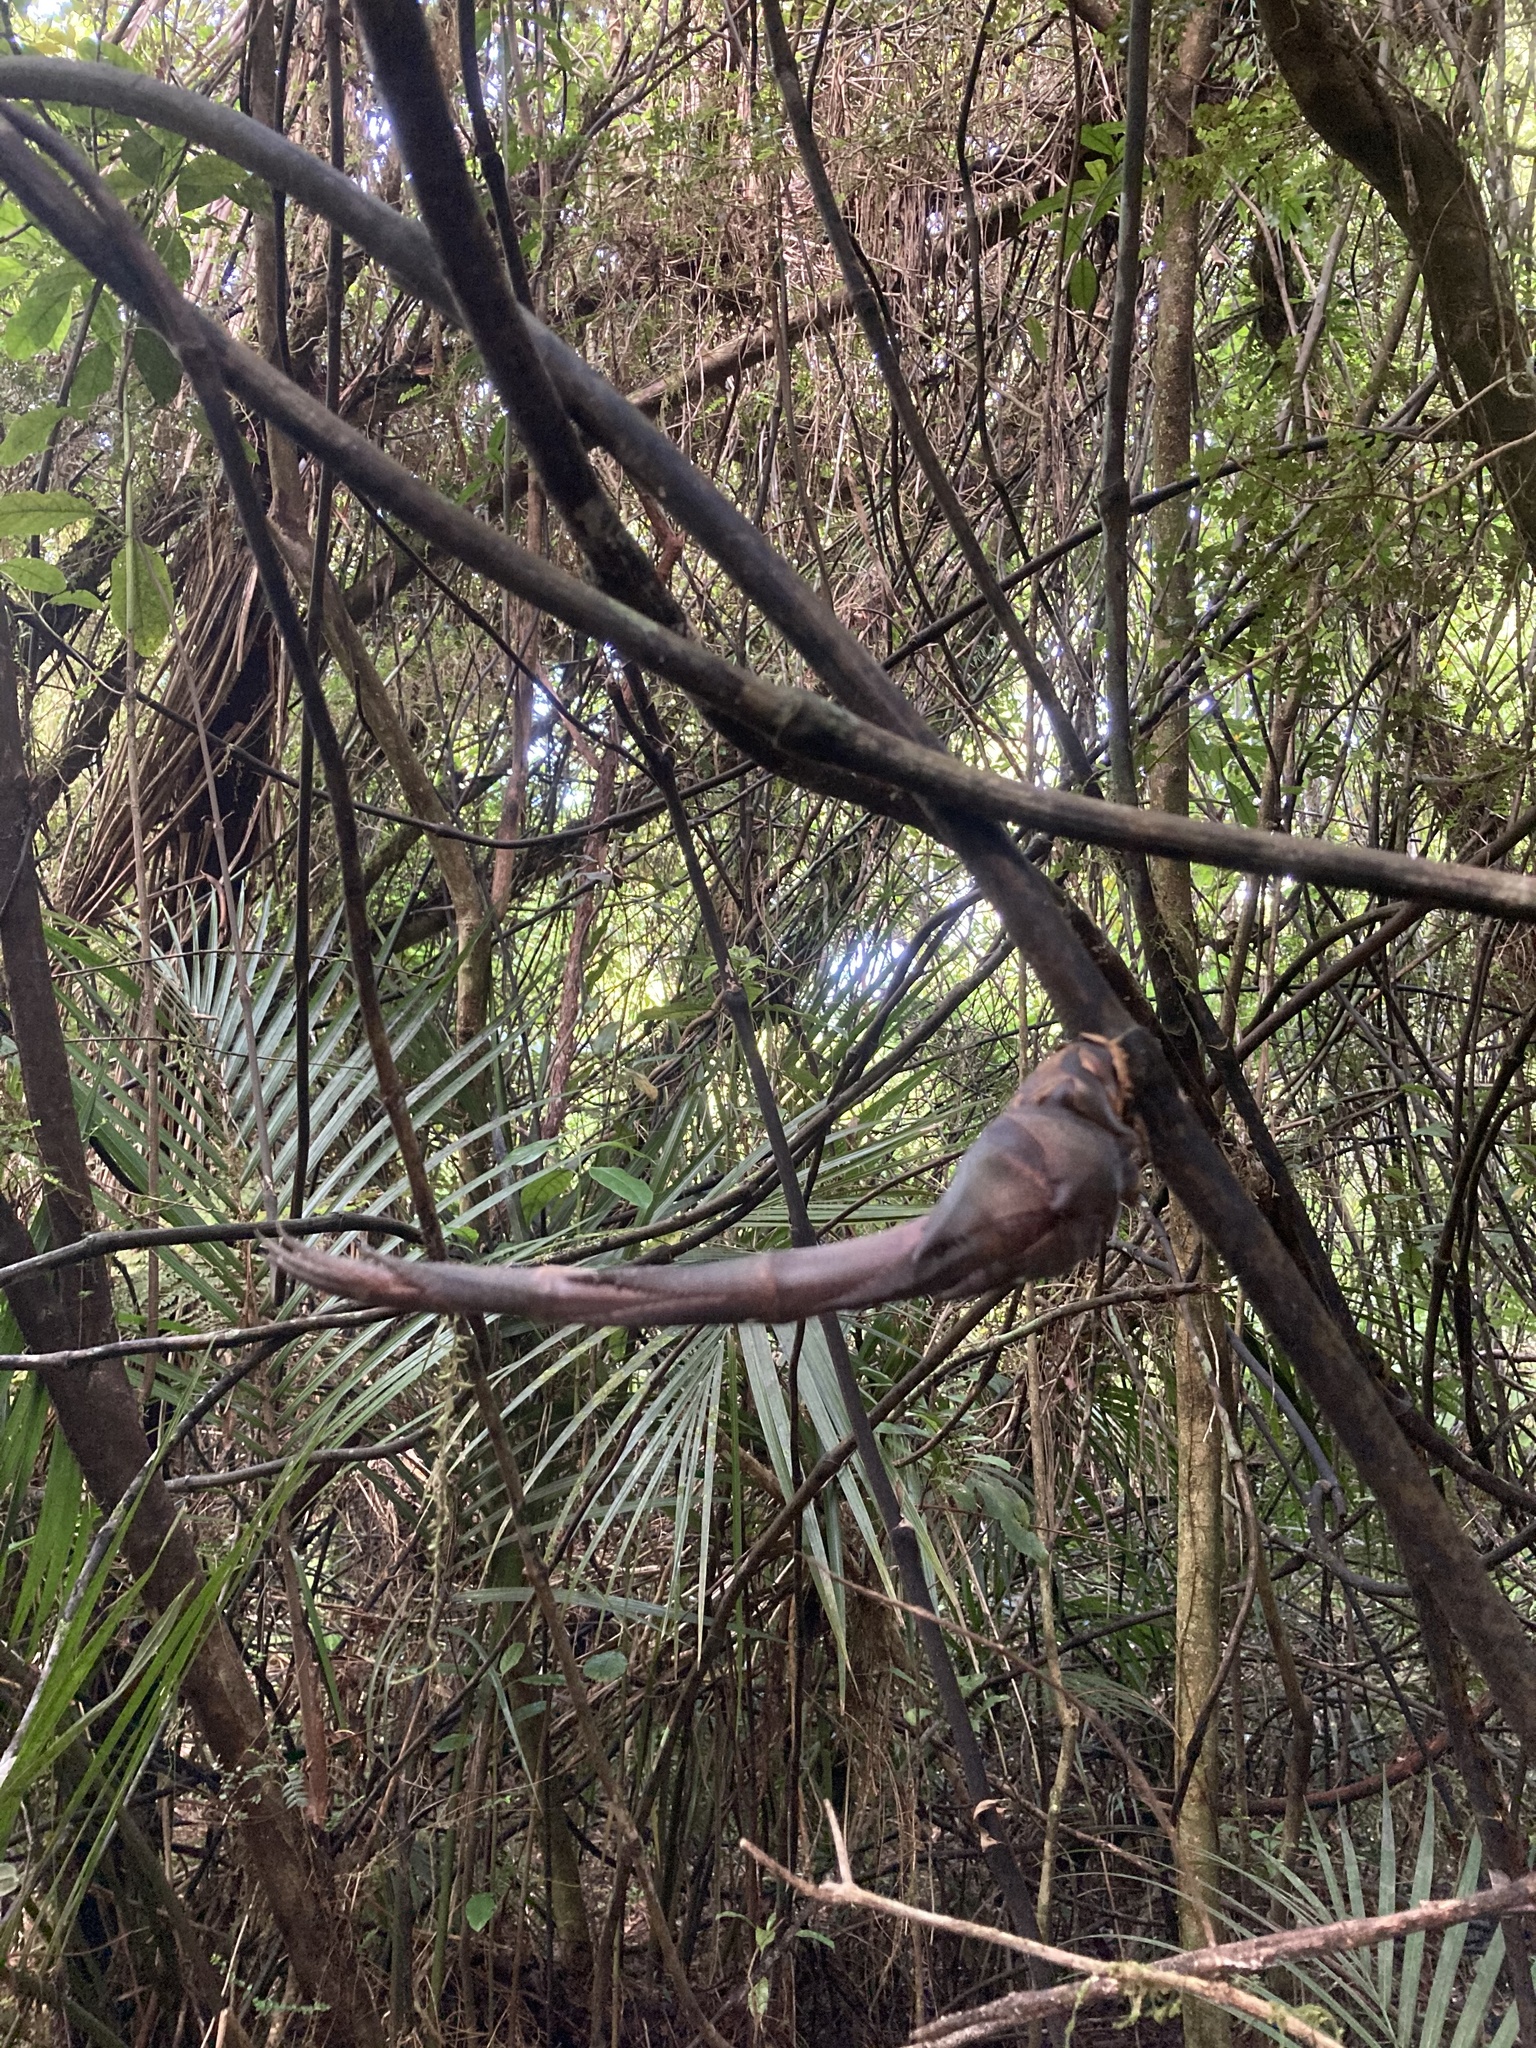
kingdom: Plantae
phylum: Tracheophyta
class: Liliopsida
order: Liliales
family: Ripogonaceae
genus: Ripogonum
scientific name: Ripogonum scandens
